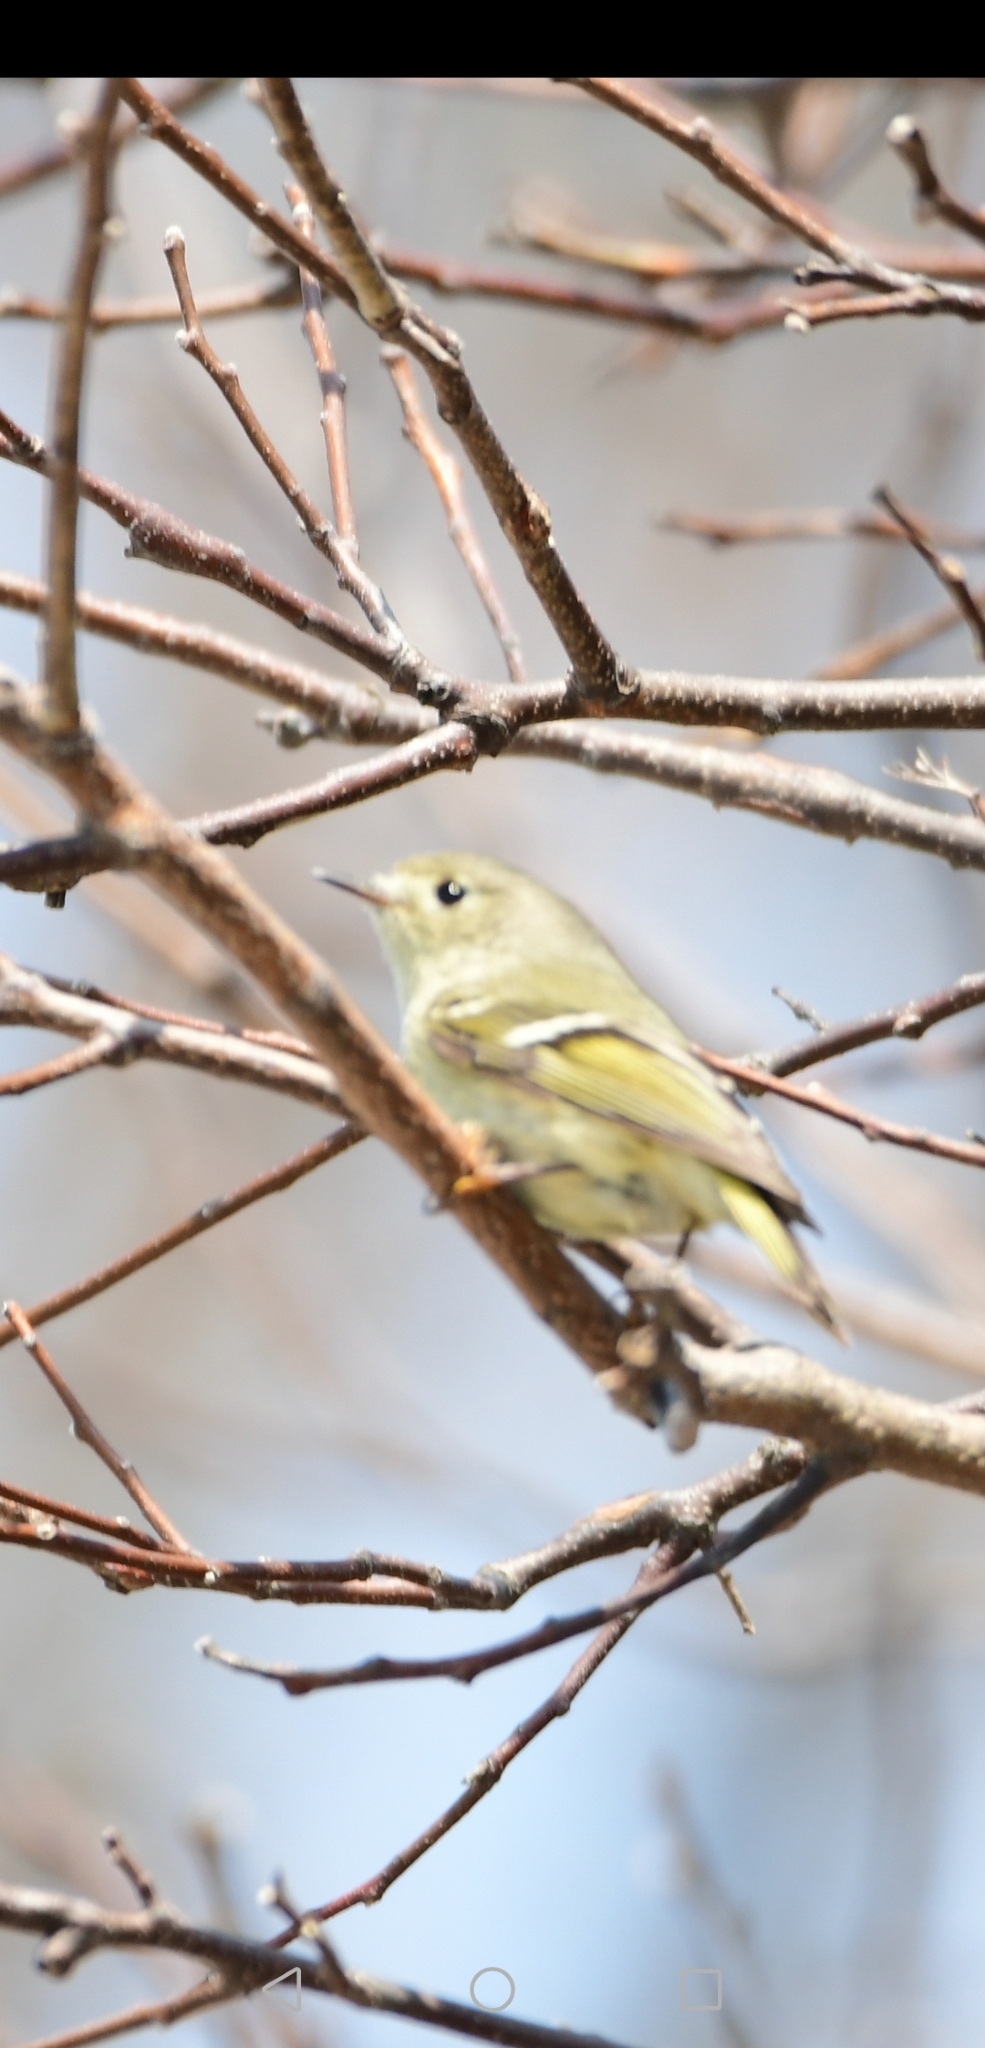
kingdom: Animalia
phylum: Chordata
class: Aves
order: Passeriformes
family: Regulidae
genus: Regulus
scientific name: Regulus calendula
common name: Ruby-crowned kinglet
